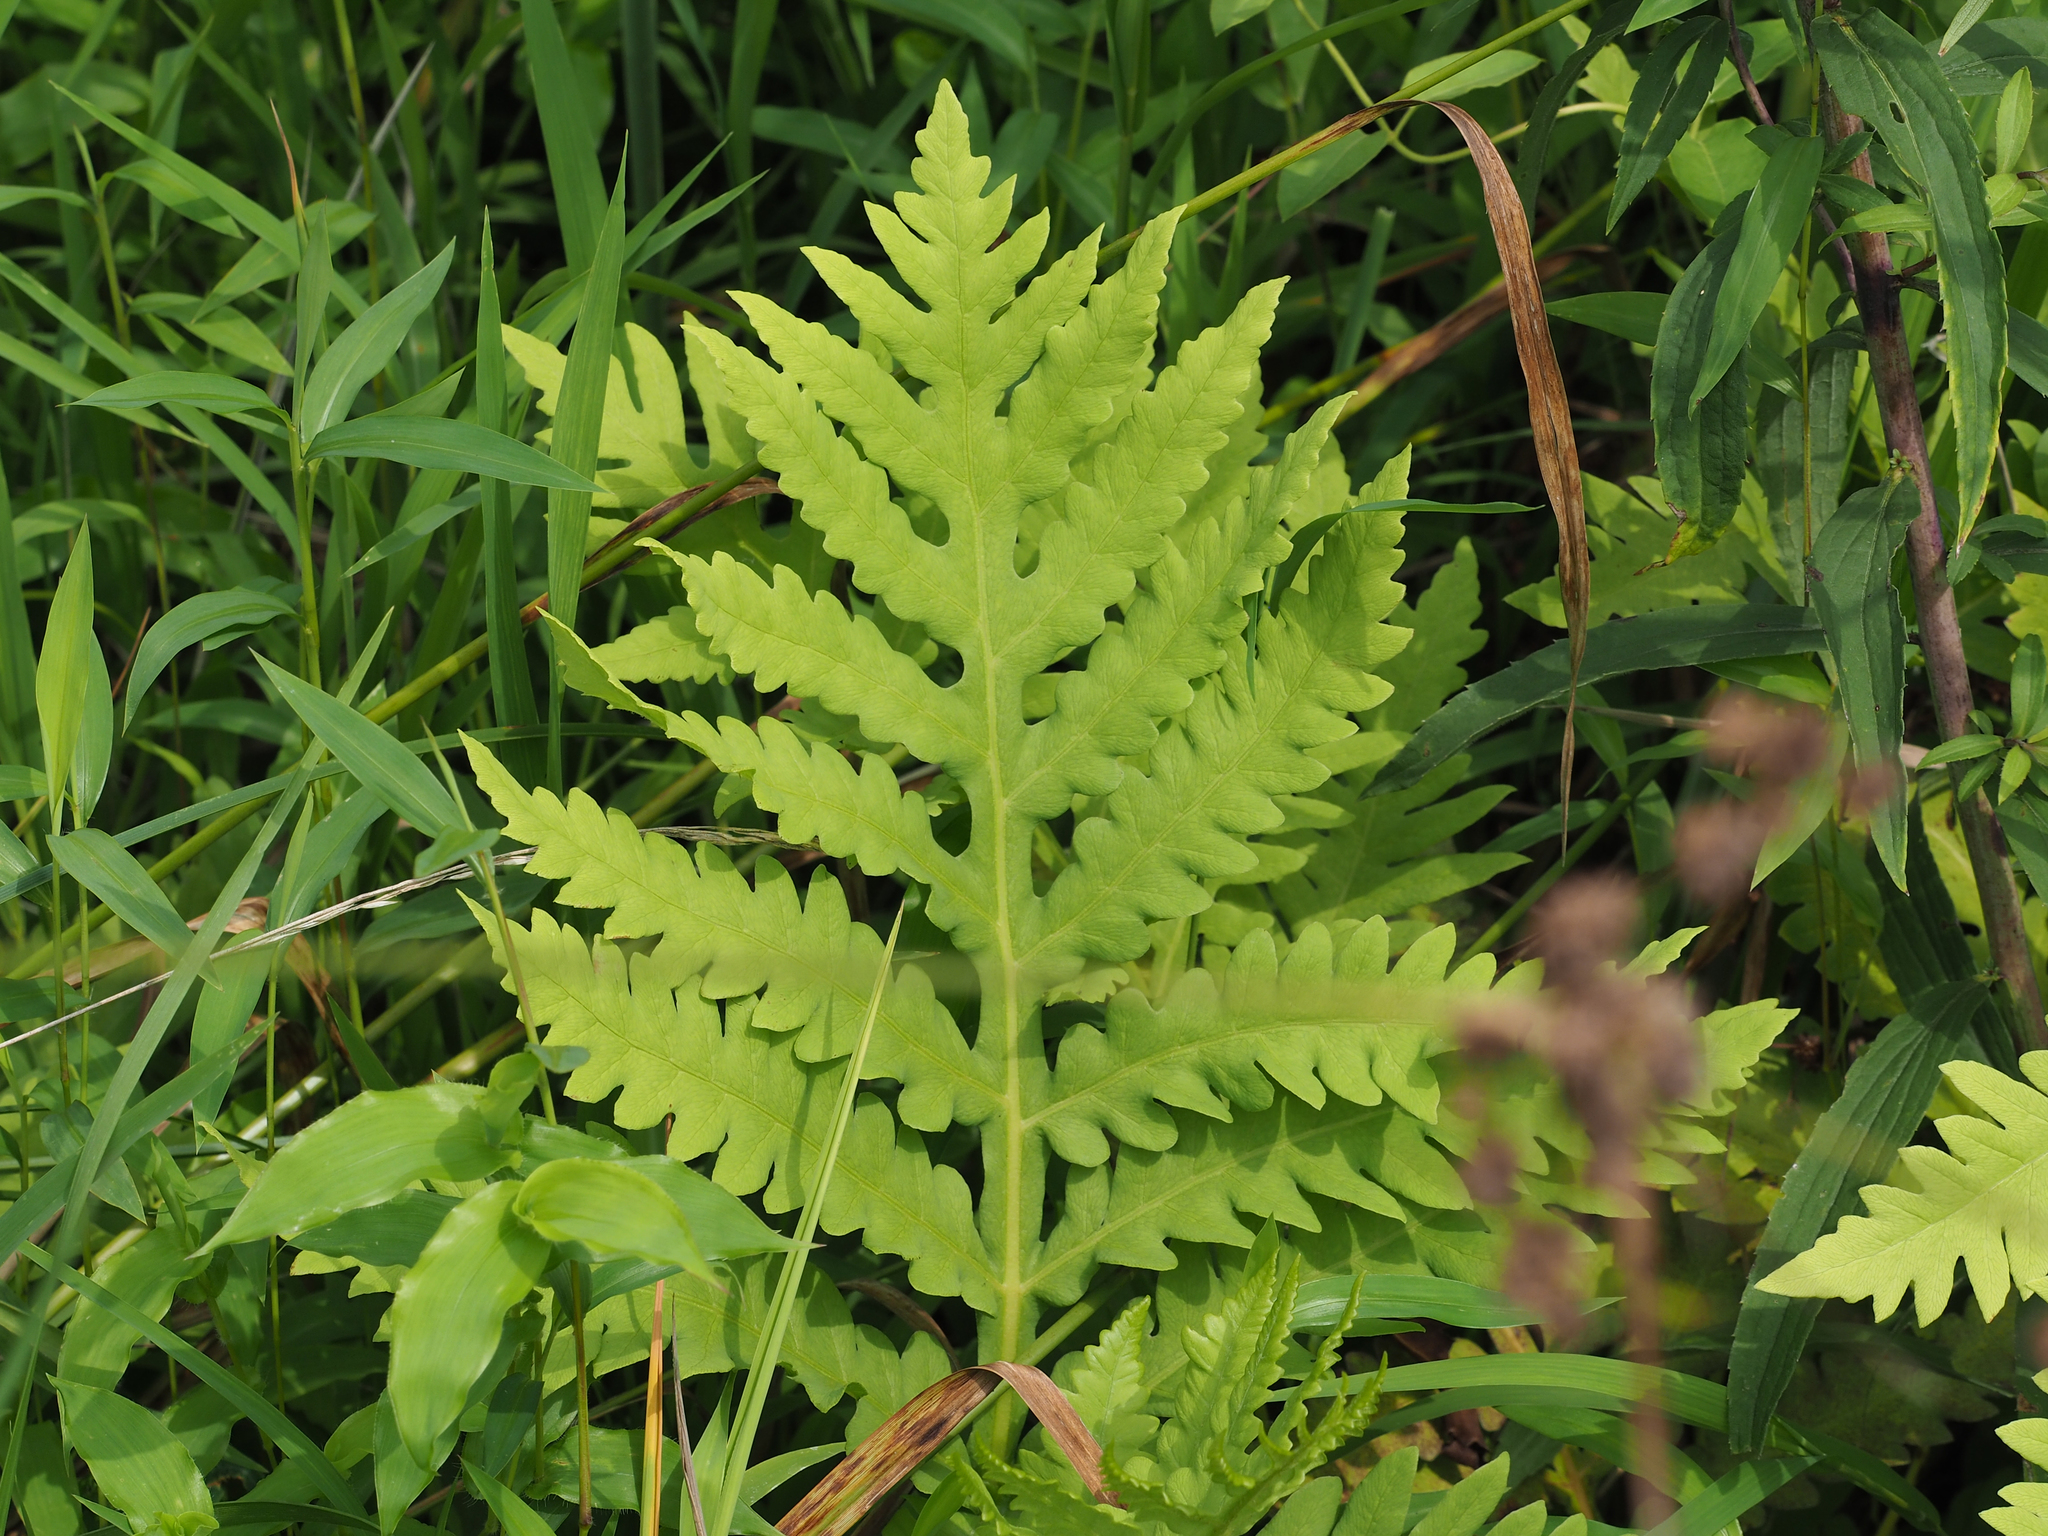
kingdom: Plantae
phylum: Tracheophyta
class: Polypodiopsida
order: Polypodiales
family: Onocleaceae
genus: Onoclea
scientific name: Onoclea sensibilis
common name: Sensitive fern
